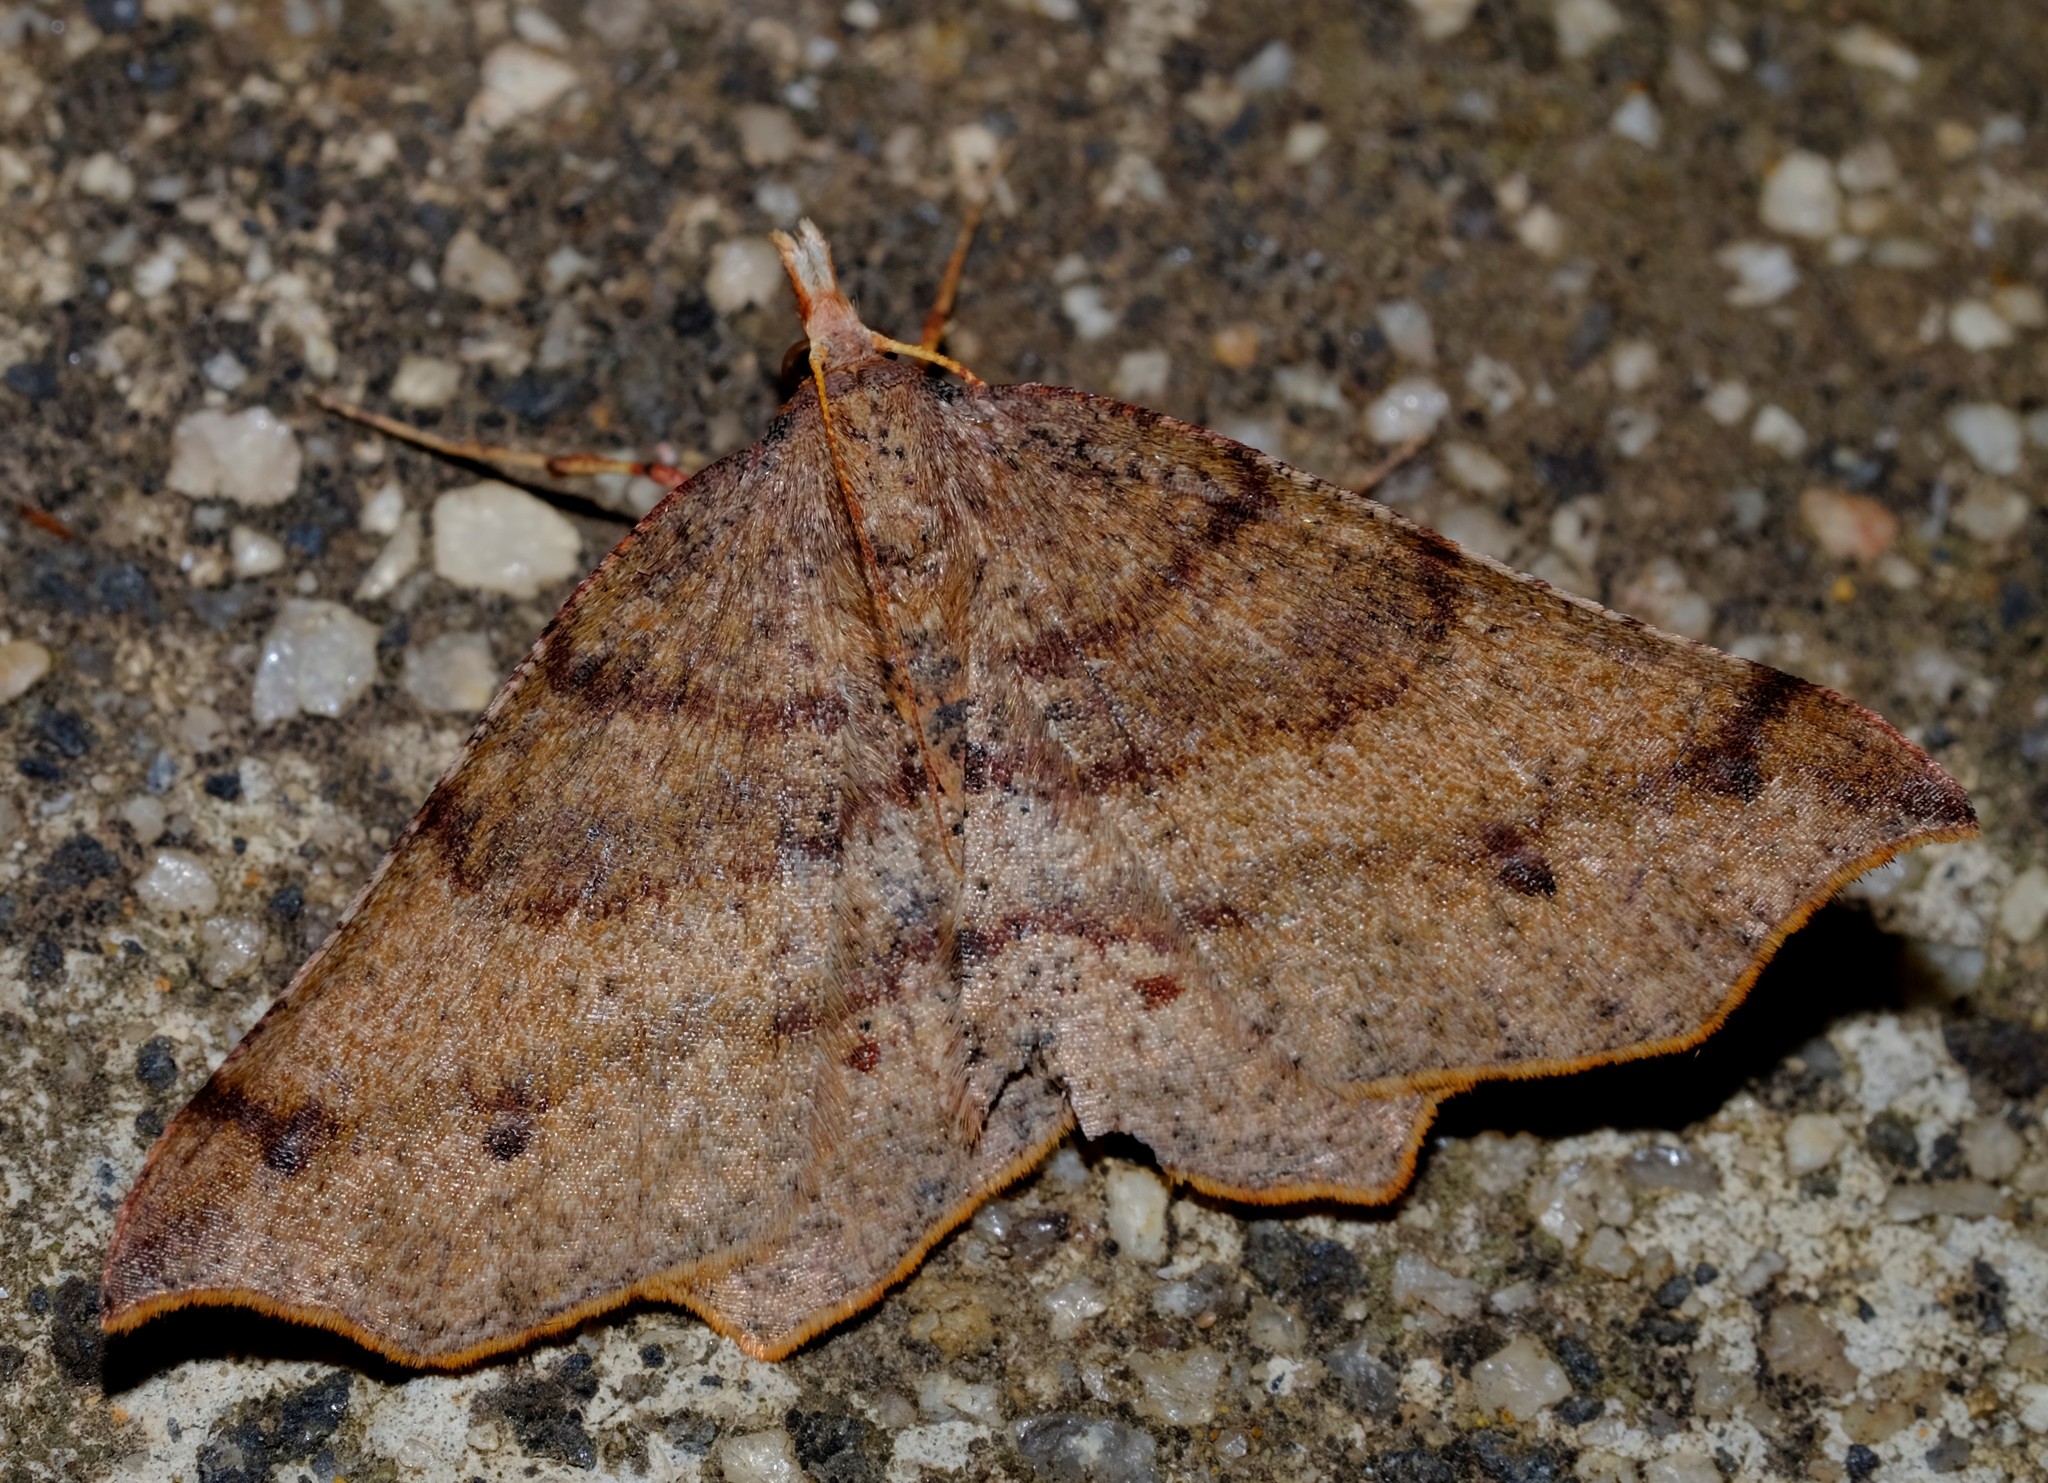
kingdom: Animalia
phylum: Arthropoda
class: Insecta
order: Lepidoptera
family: Geometridae
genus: Rhinodia
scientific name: Rhinodia rostraria
